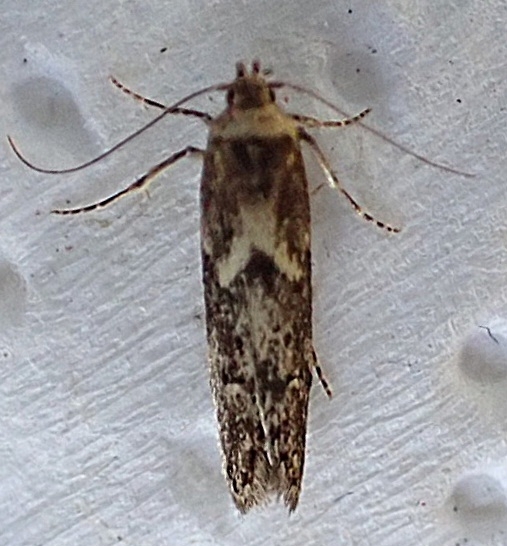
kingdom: Animalia
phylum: Arthropoda
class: Insecta
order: Lepidoptera
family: Blastobasidae
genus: Blastobasis
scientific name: Blastobasis adustella
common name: Dingy dowd
